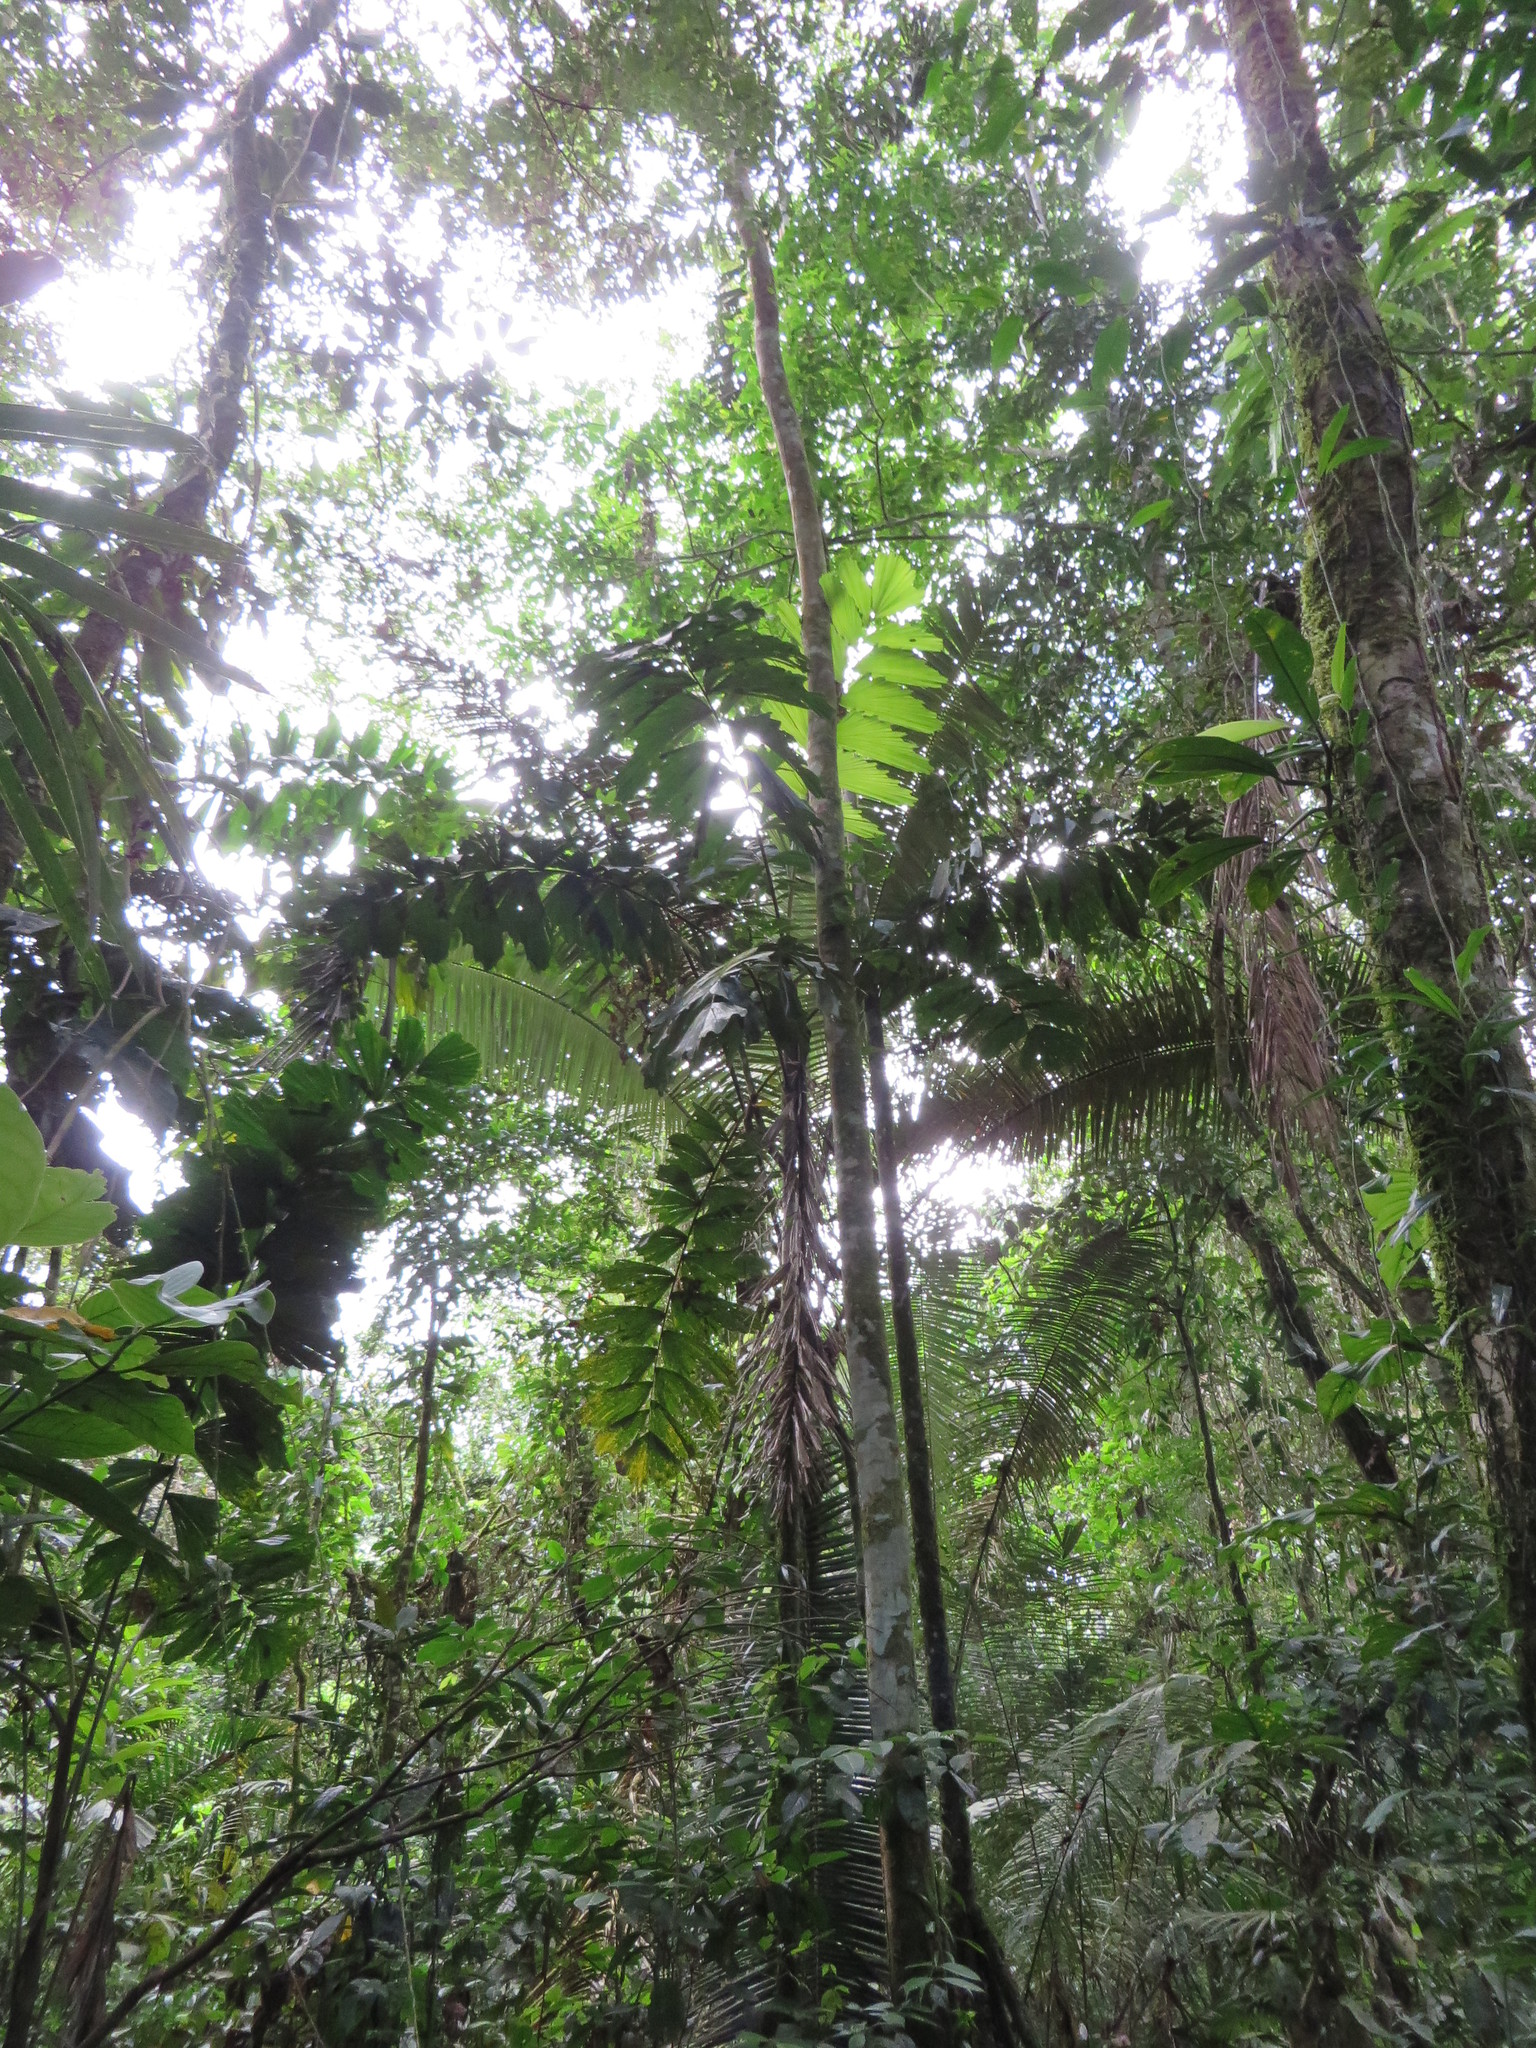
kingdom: Plantae
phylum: Tracheophyta
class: Liliopsida
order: Arecales
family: Arecaceae
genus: Iriartea
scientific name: Iriartea deltoidea
